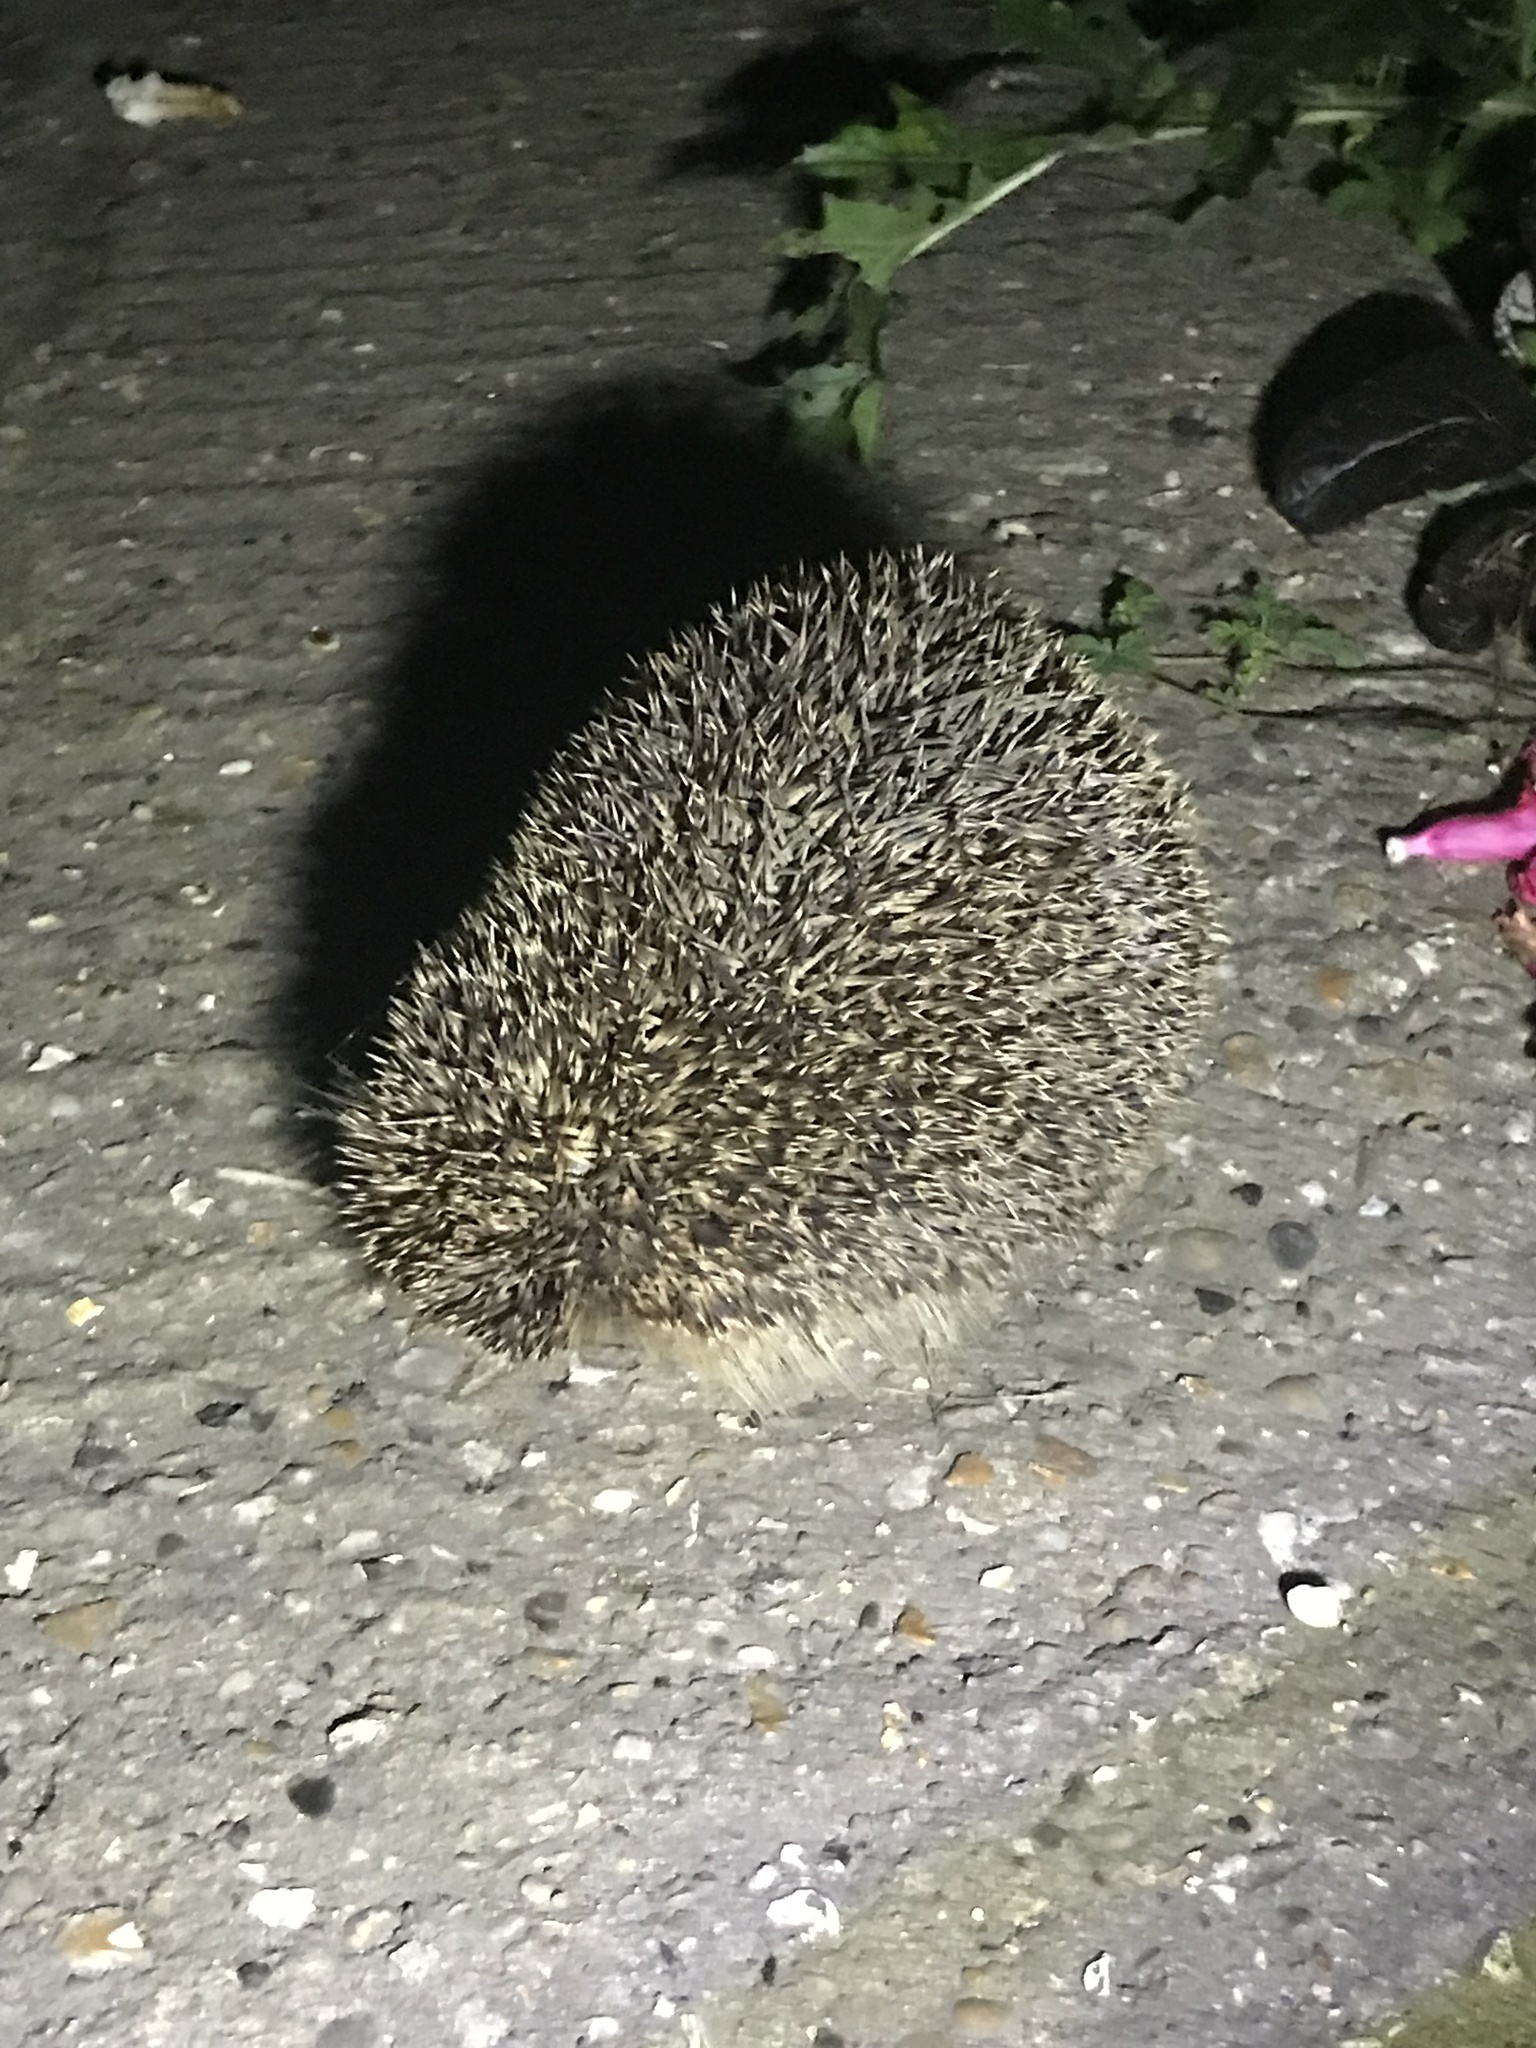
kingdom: Animalia
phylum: Chordata
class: Mammalia
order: Erinaceomorpha
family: Erinaceidae
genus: Erinaceus
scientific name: Erinaceus europaeus
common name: West european hedgehog
